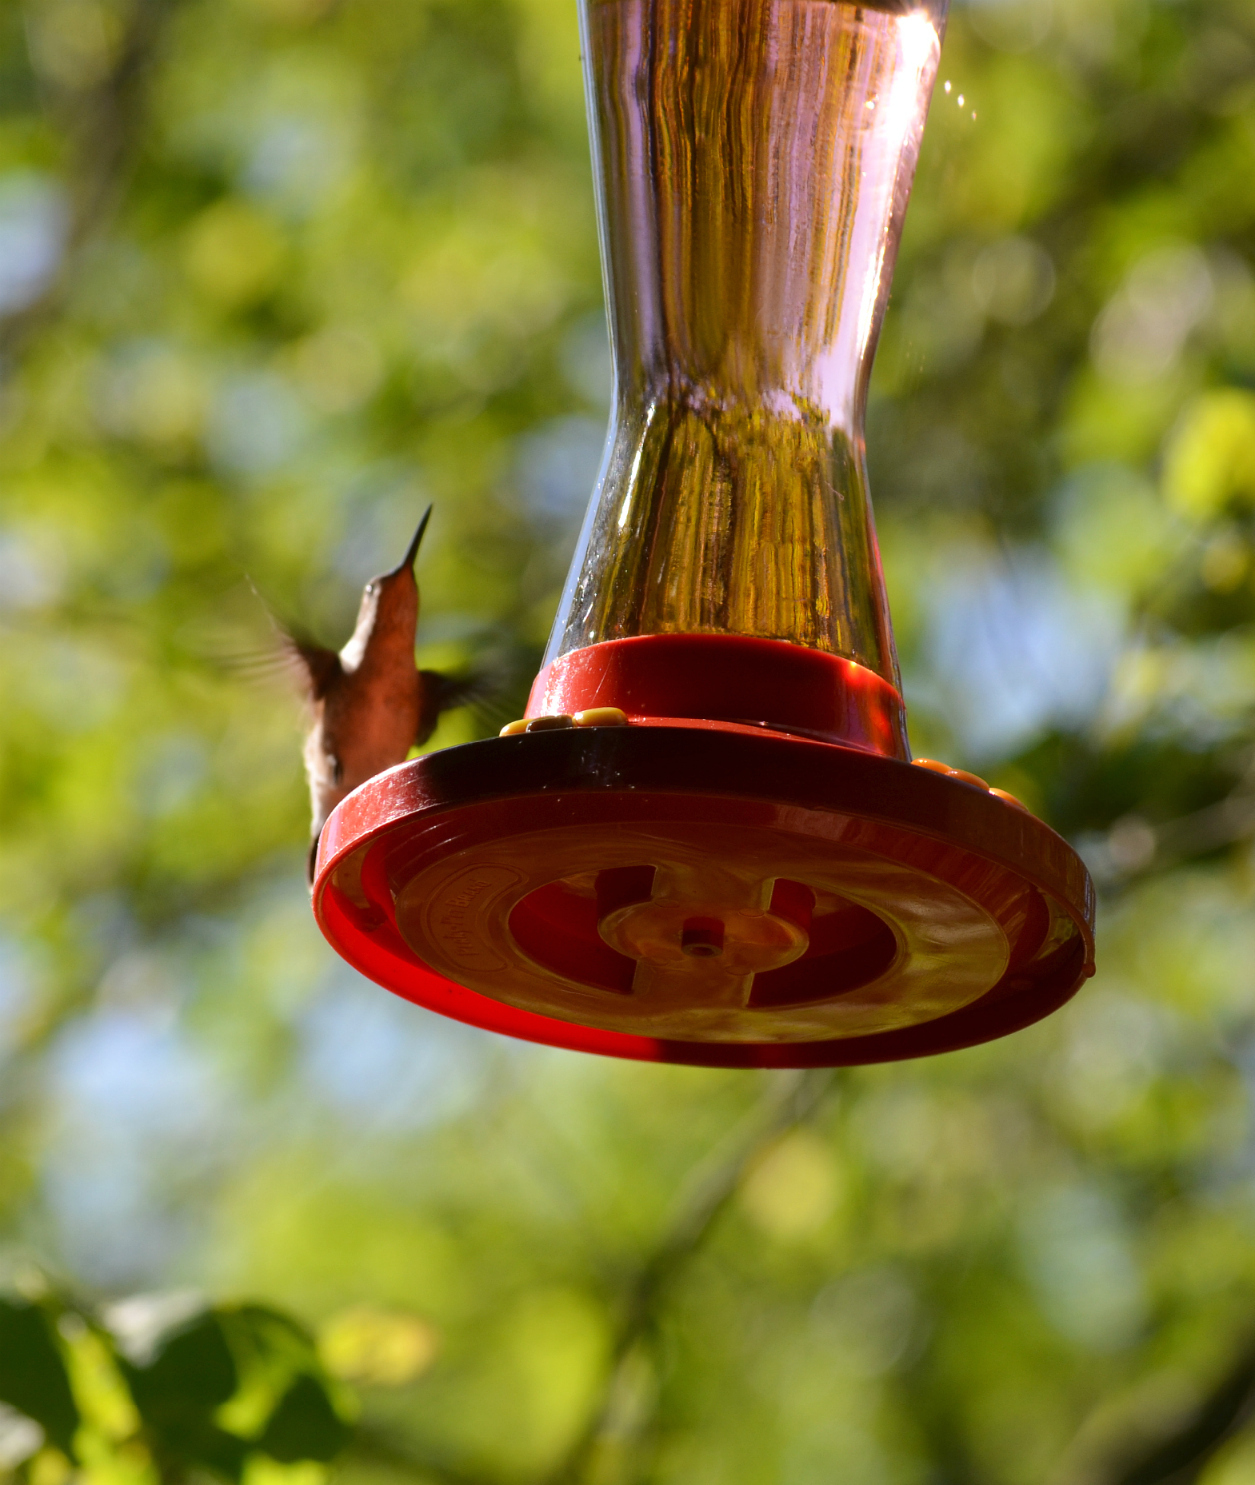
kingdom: Animalia
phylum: Chordata
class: Aves
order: Apodiformes
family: Trochilidae
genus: Archilochus
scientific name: Archilochus colubris
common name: Ruby-throated hummingbird
